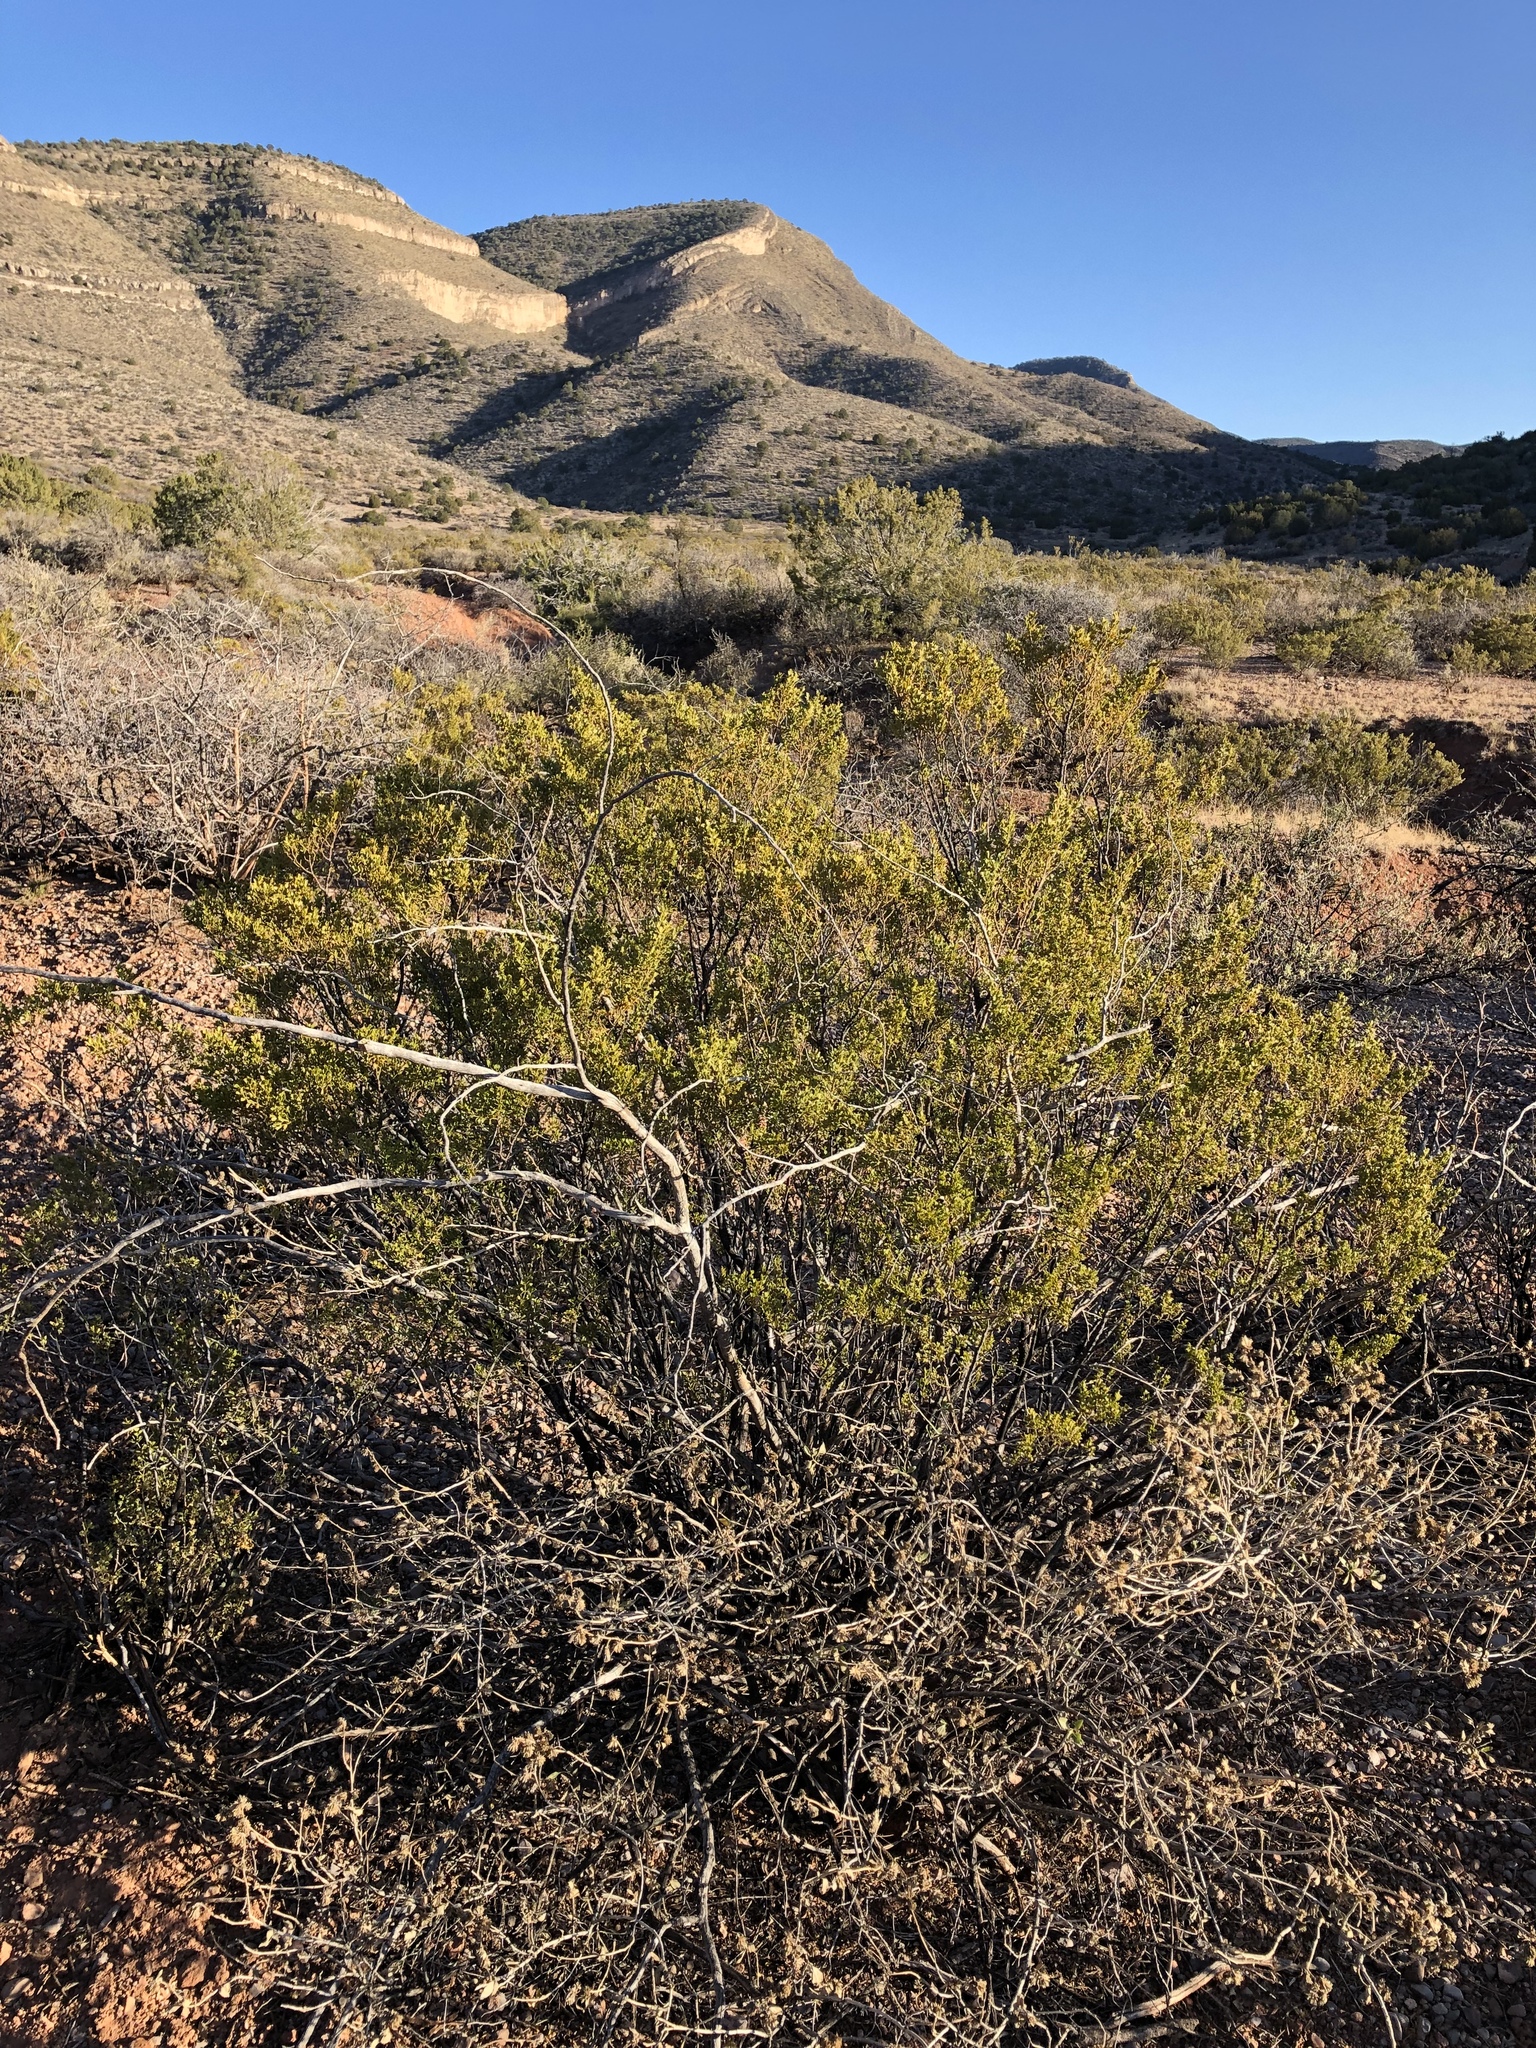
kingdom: Plantae
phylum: Tracheophyta
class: Magnoliopsida
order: Zygophyllales
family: Zygophyllaceae
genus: Larrea
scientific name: Larrea tridentata
